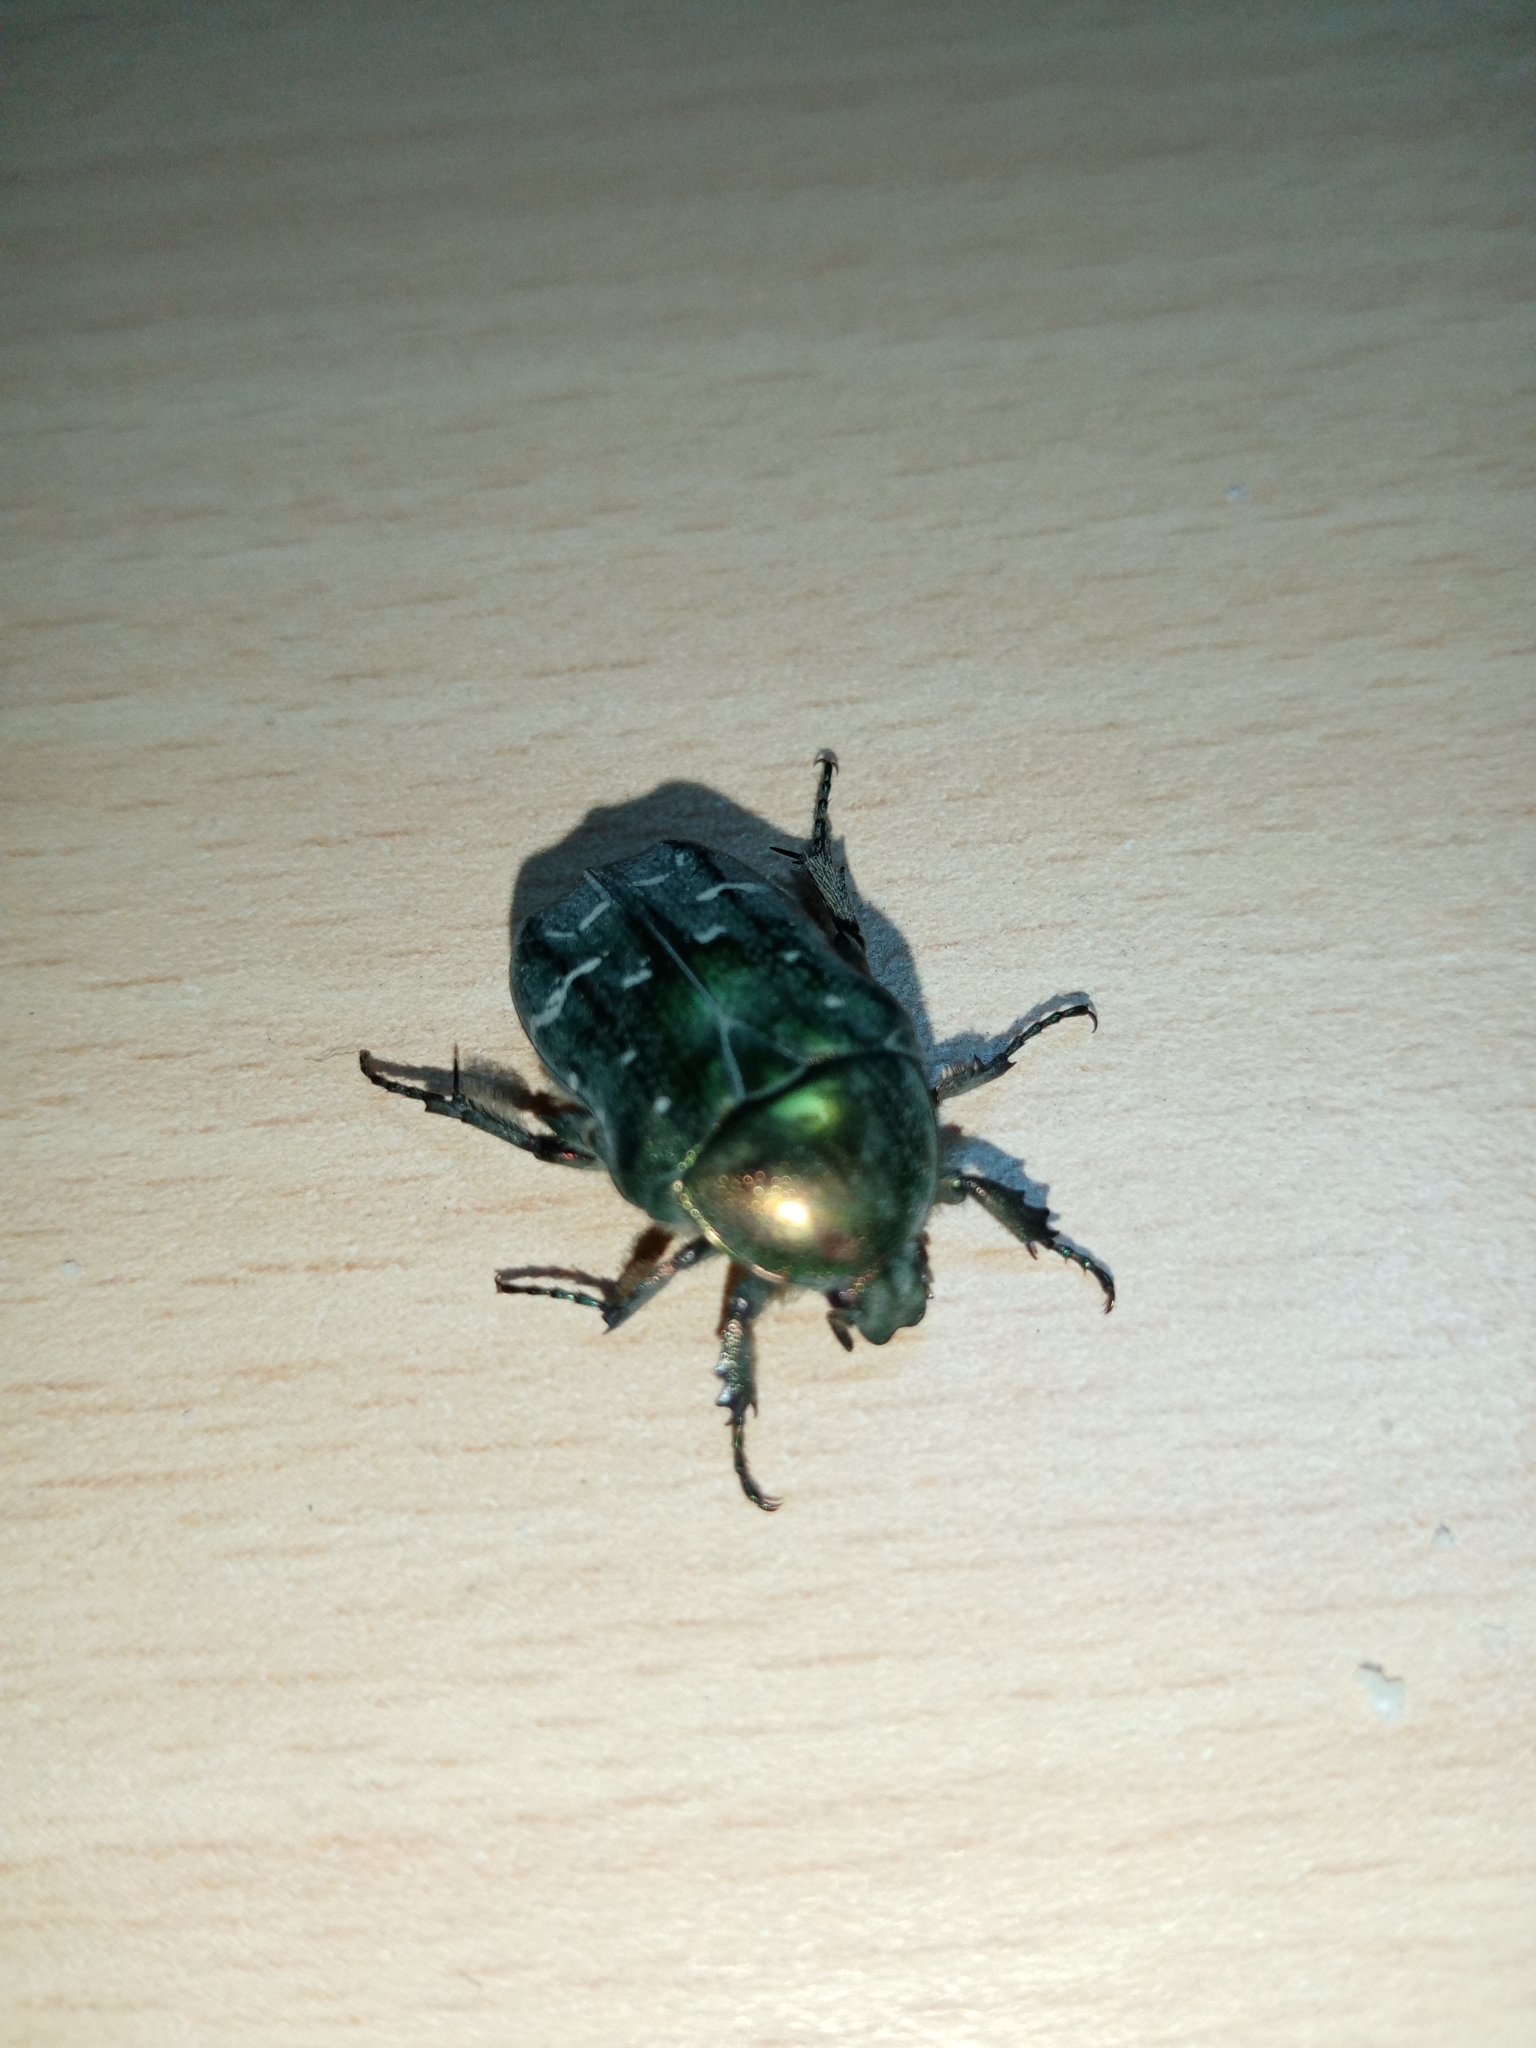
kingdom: Animalia
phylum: Arthropoda
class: Insecta
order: Coleoptera
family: Scarabaeidae
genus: Cetonia
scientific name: Cetonia aurata
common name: Rose chafer
